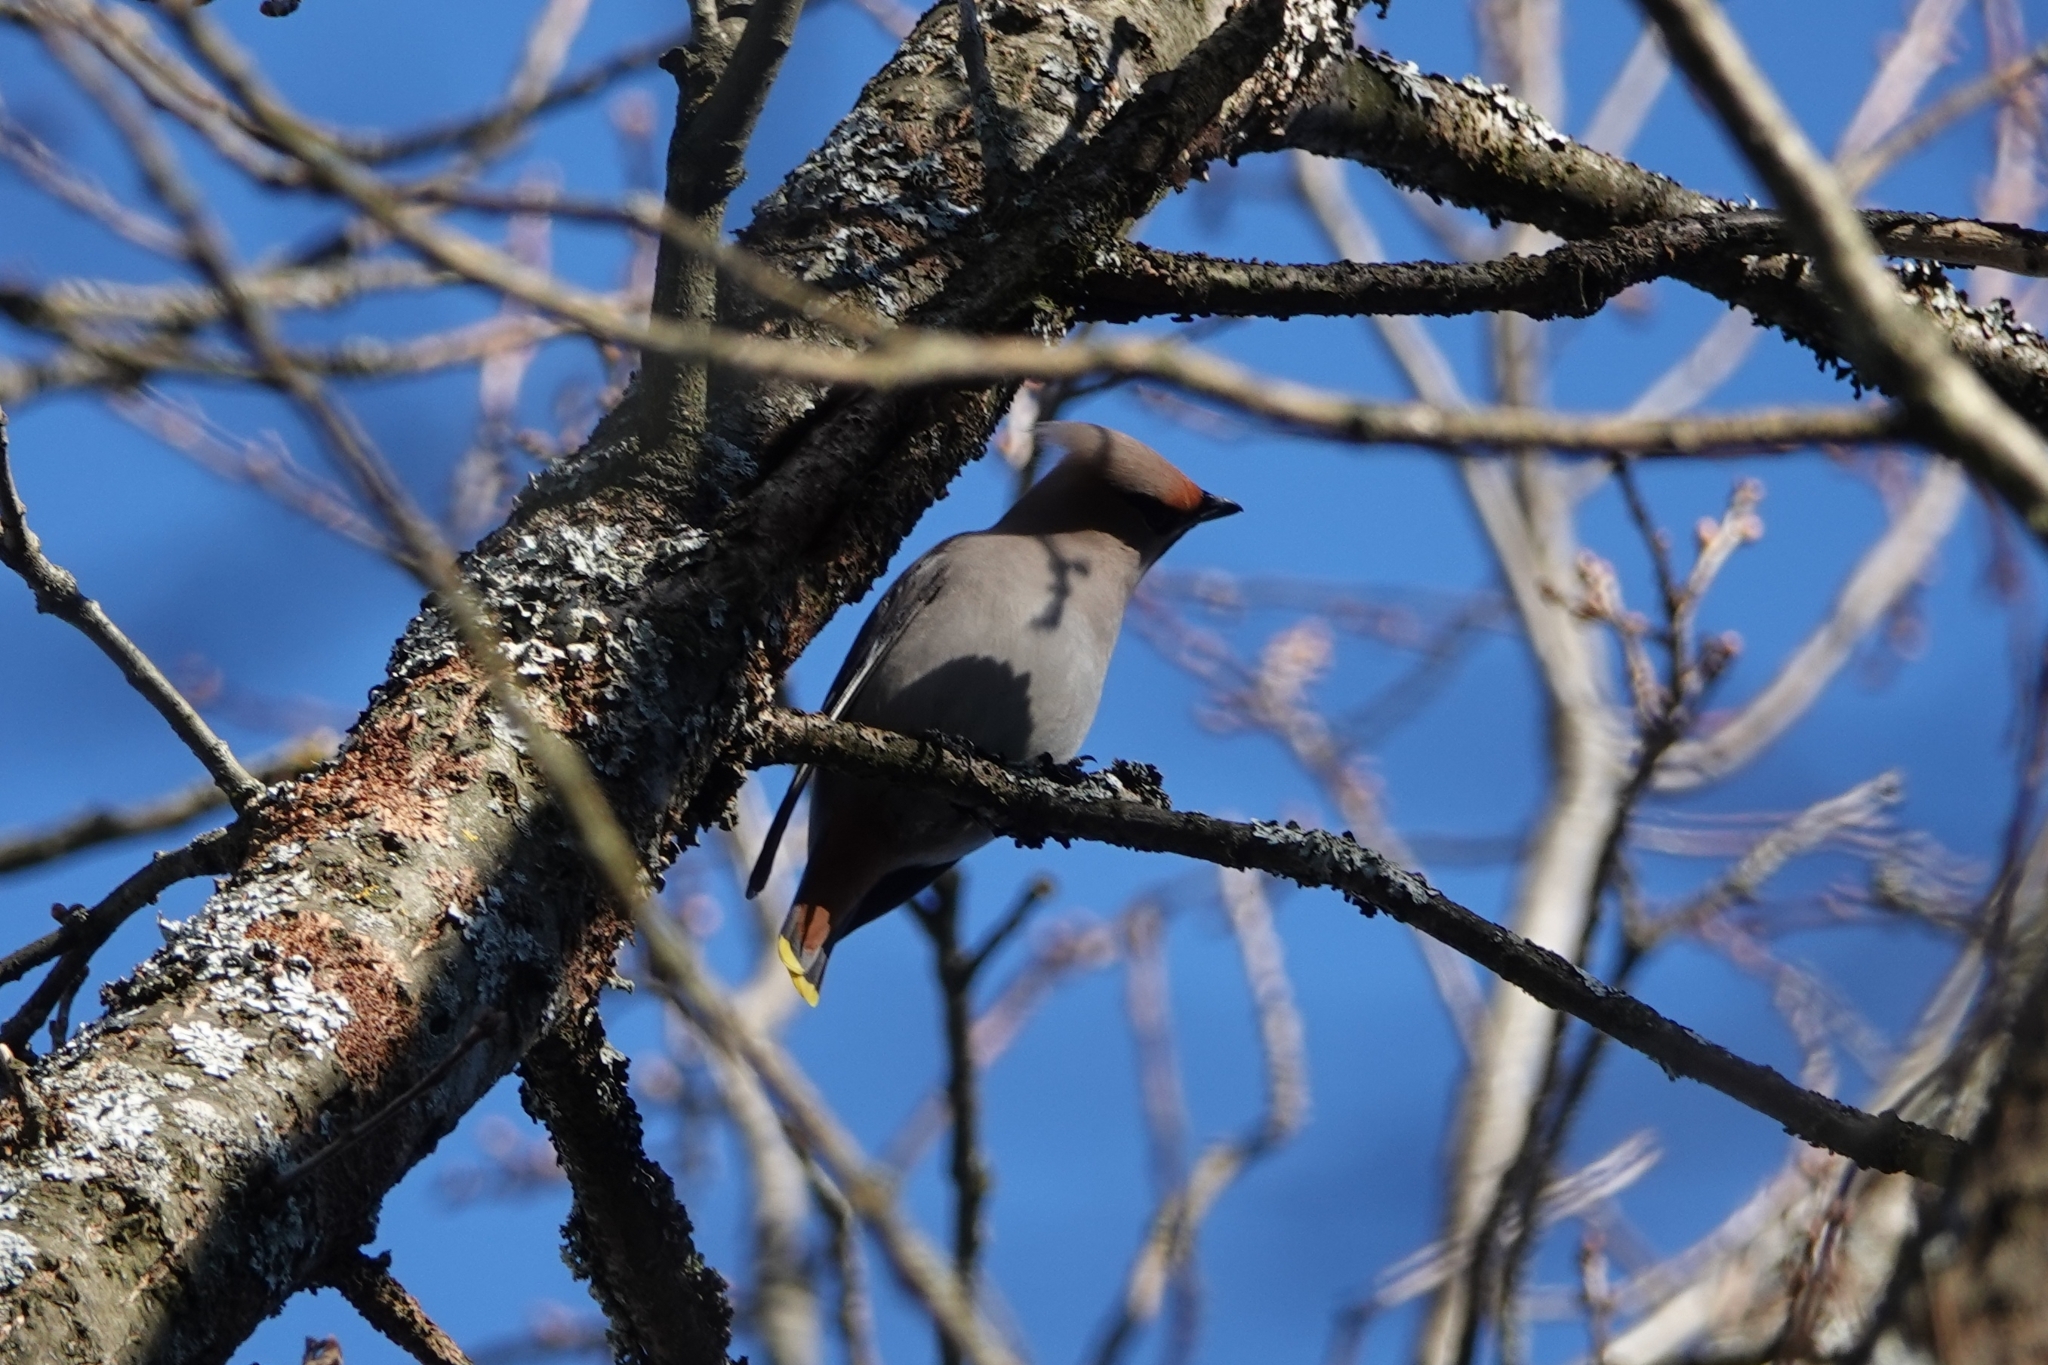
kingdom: Animalia
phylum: Chordata
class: Aves
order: Passeriformes
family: Bombycillidae
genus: Bombycilla
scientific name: Bombycilla garrulus
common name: Bohemian waxwing
